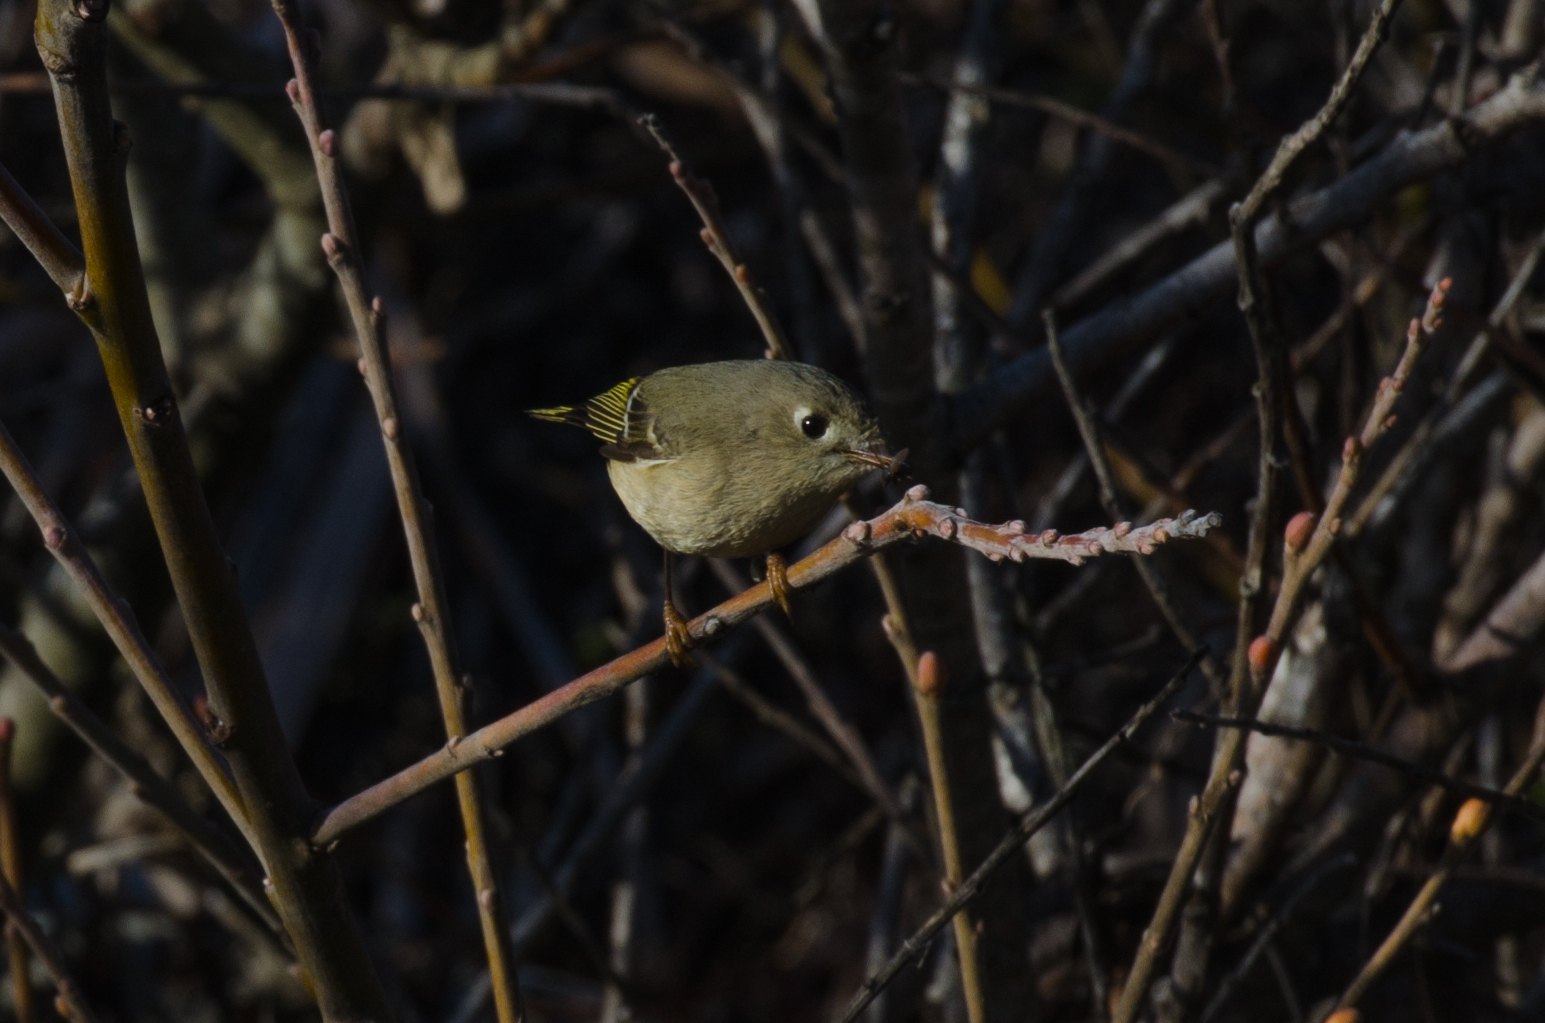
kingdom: Animalia
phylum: Chordata
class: Aves
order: Passeriformes
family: Regulidae
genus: Regulus
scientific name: Regulus calendula
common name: Ruby-crowned kinglet
